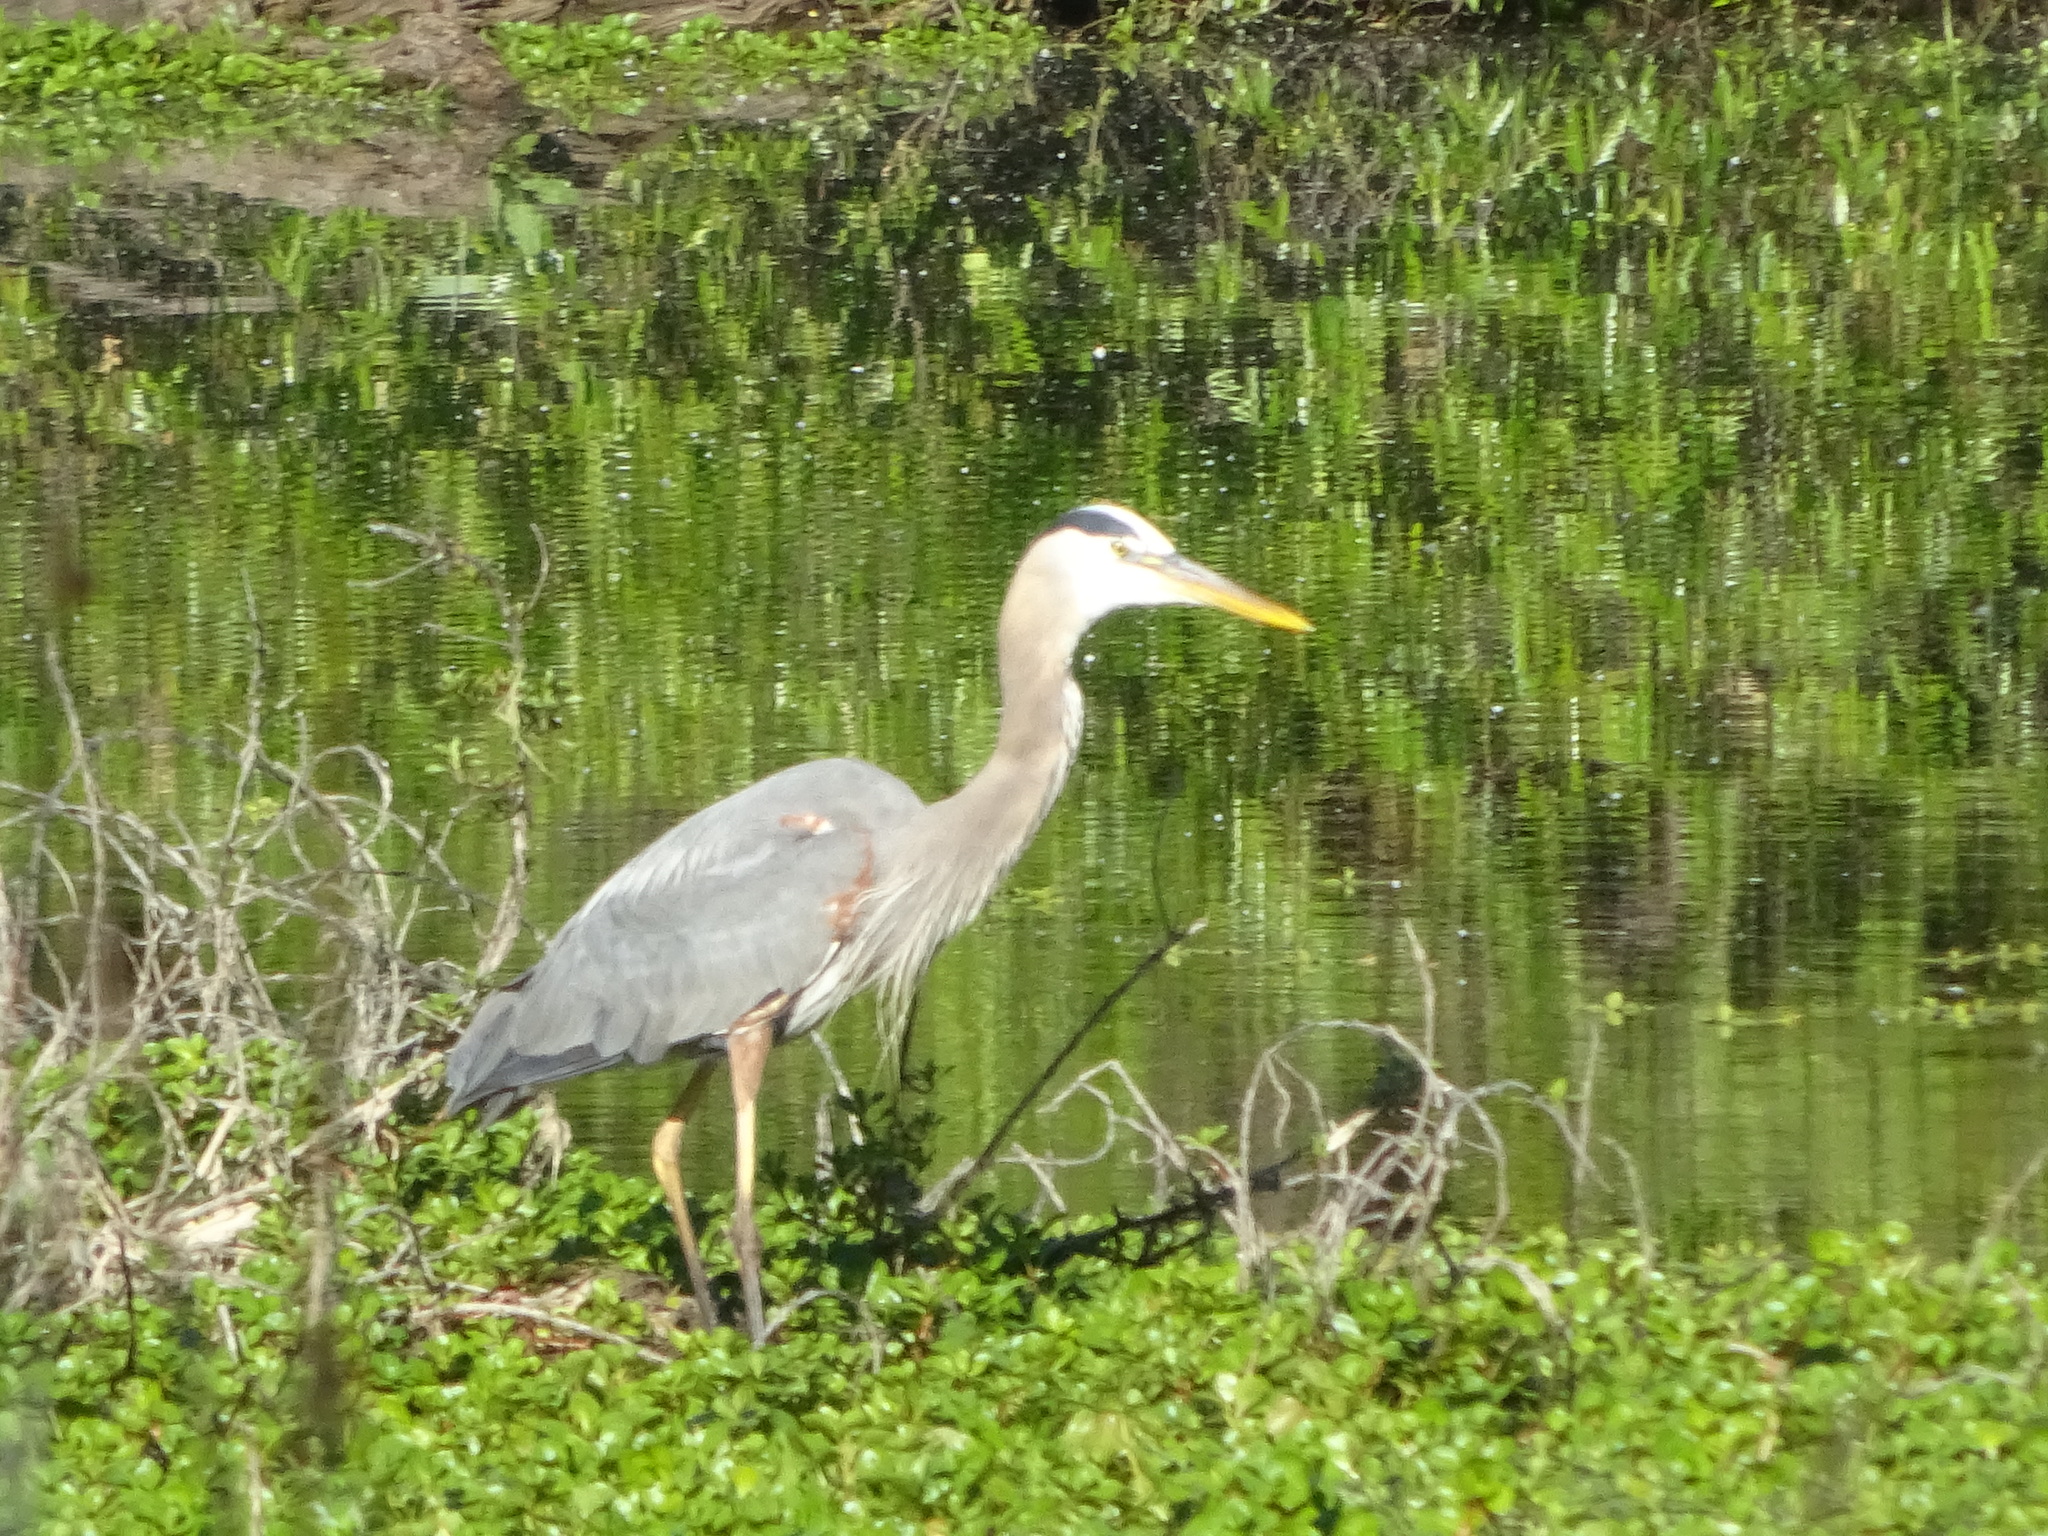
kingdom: Animalia
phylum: Chordata
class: Aves
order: Pelecaniformes
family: Ardeidae
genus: Ardea
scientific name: Ardea herodias
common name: Great blue heron
